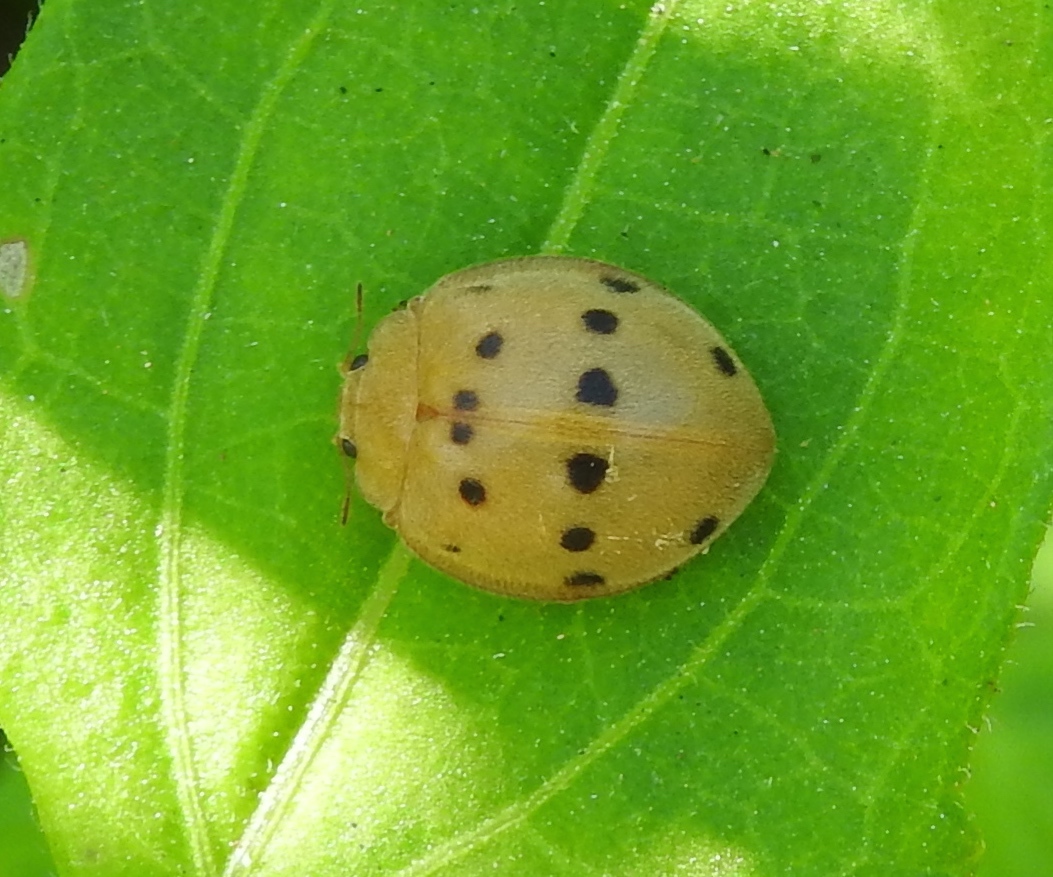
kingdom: Animalia
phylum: Arthropoda
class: Insecta
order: Coleoptera
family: Coccinellidae
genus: Epilachna
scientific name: Epilachna tredecimnotata
